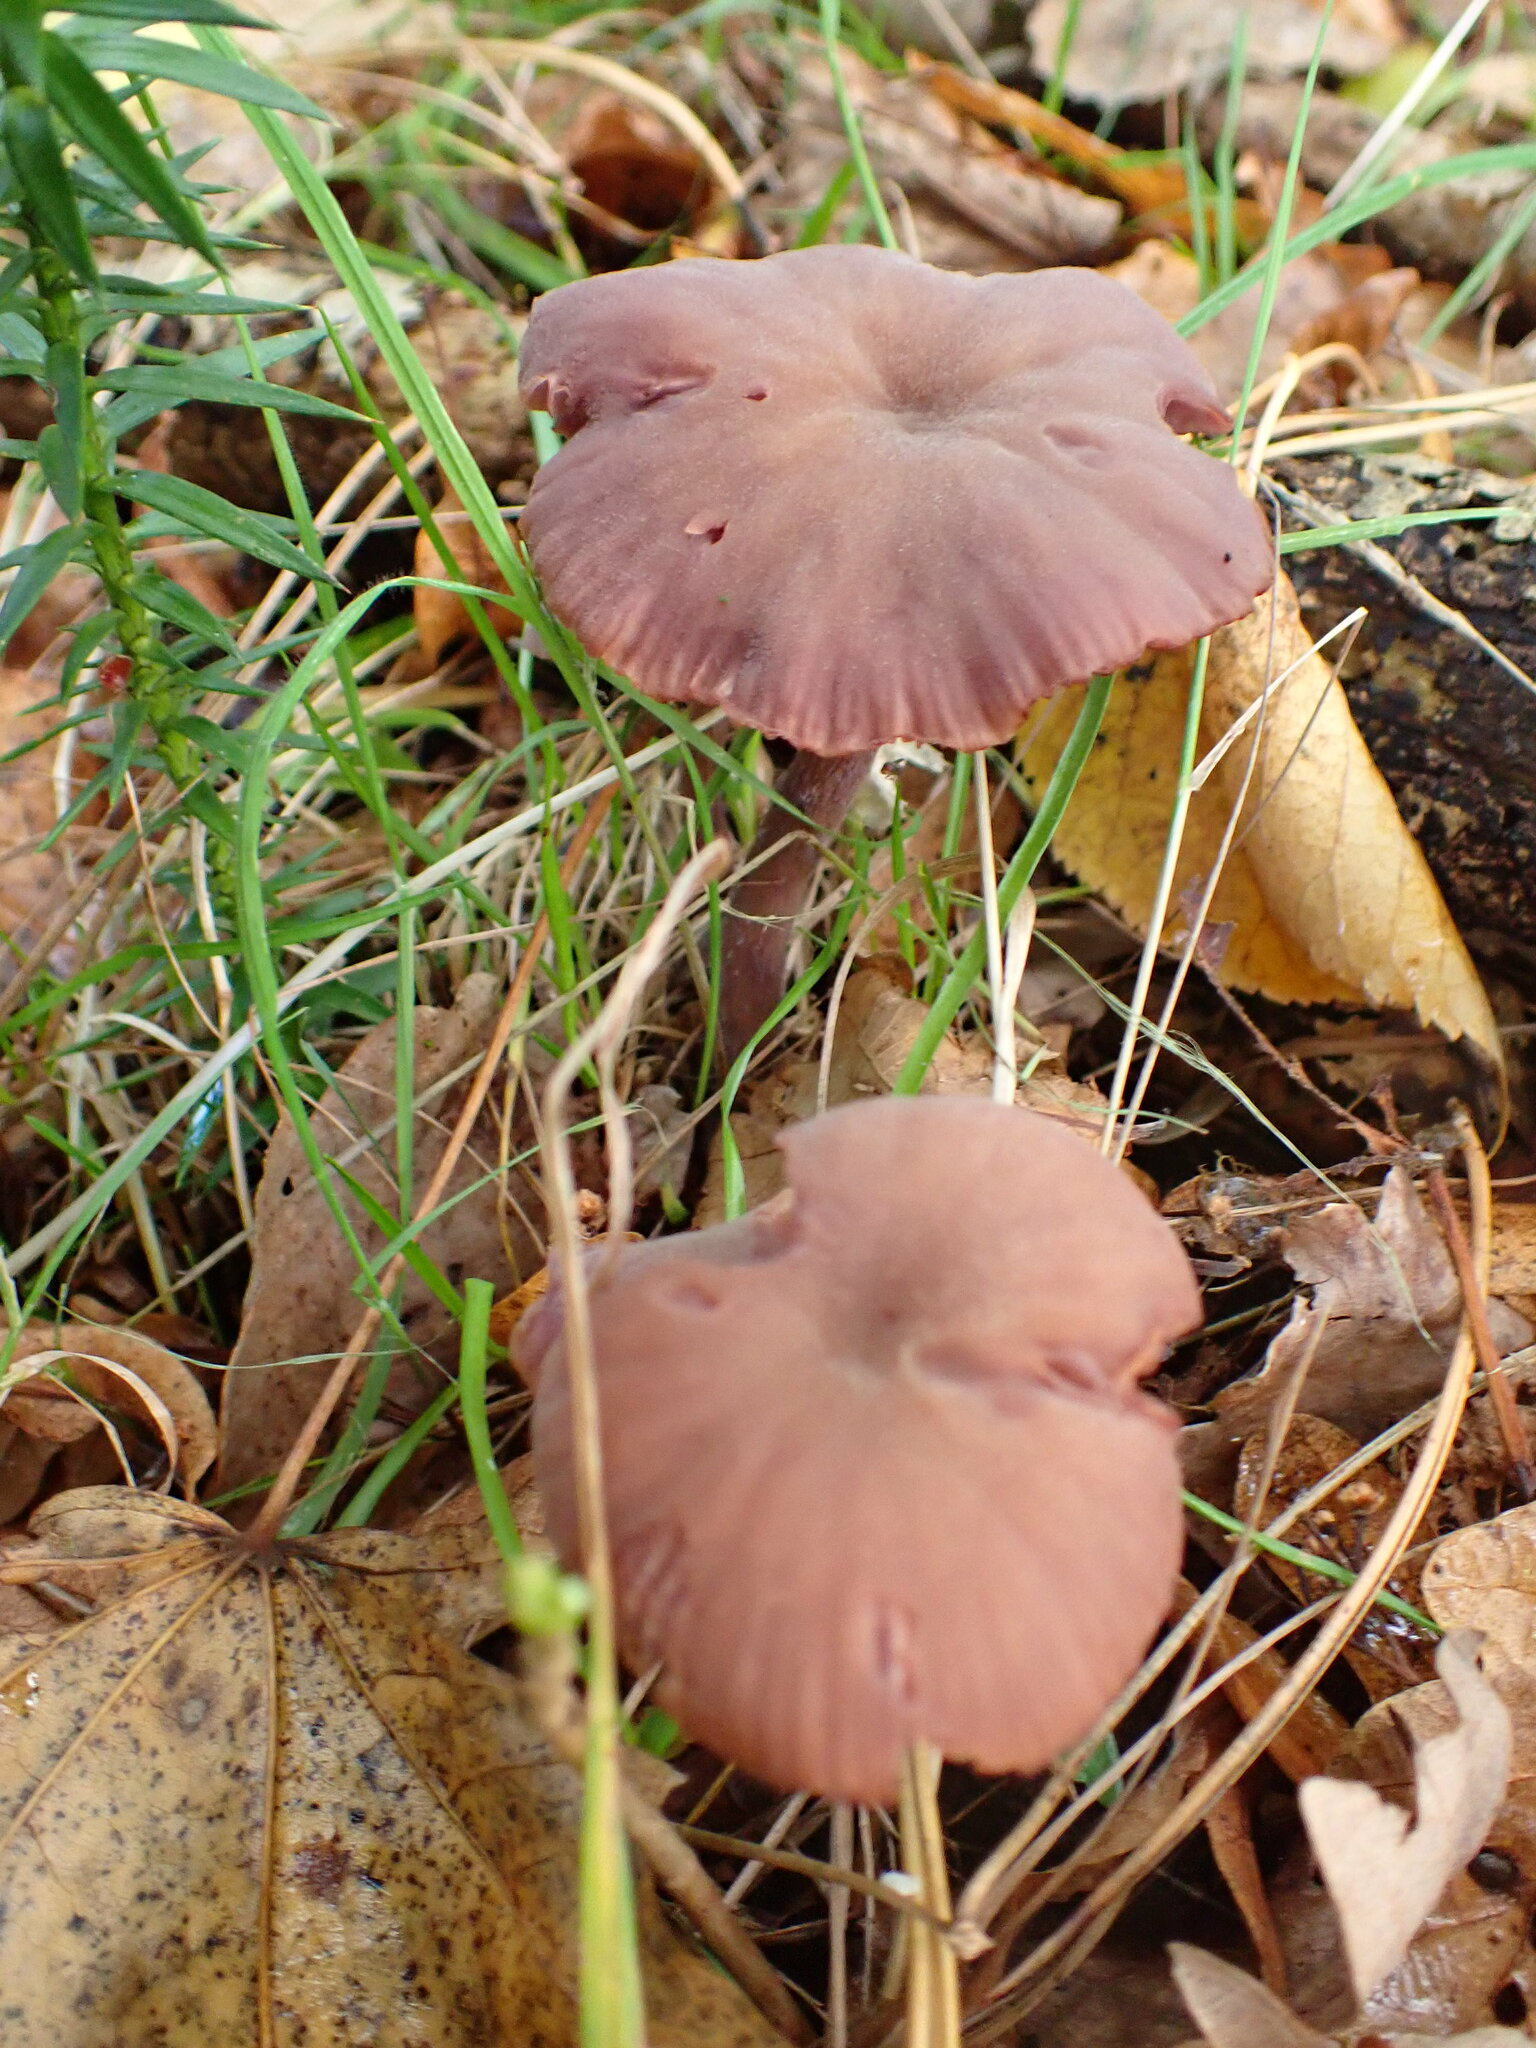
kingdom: Fungi
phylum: Basidiomycota
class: Agaricomycetes
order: Agaricales
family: Hydnangiaceae
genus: Laccaria
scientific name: Laccaria amethystina
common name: Amethyst deceiver
